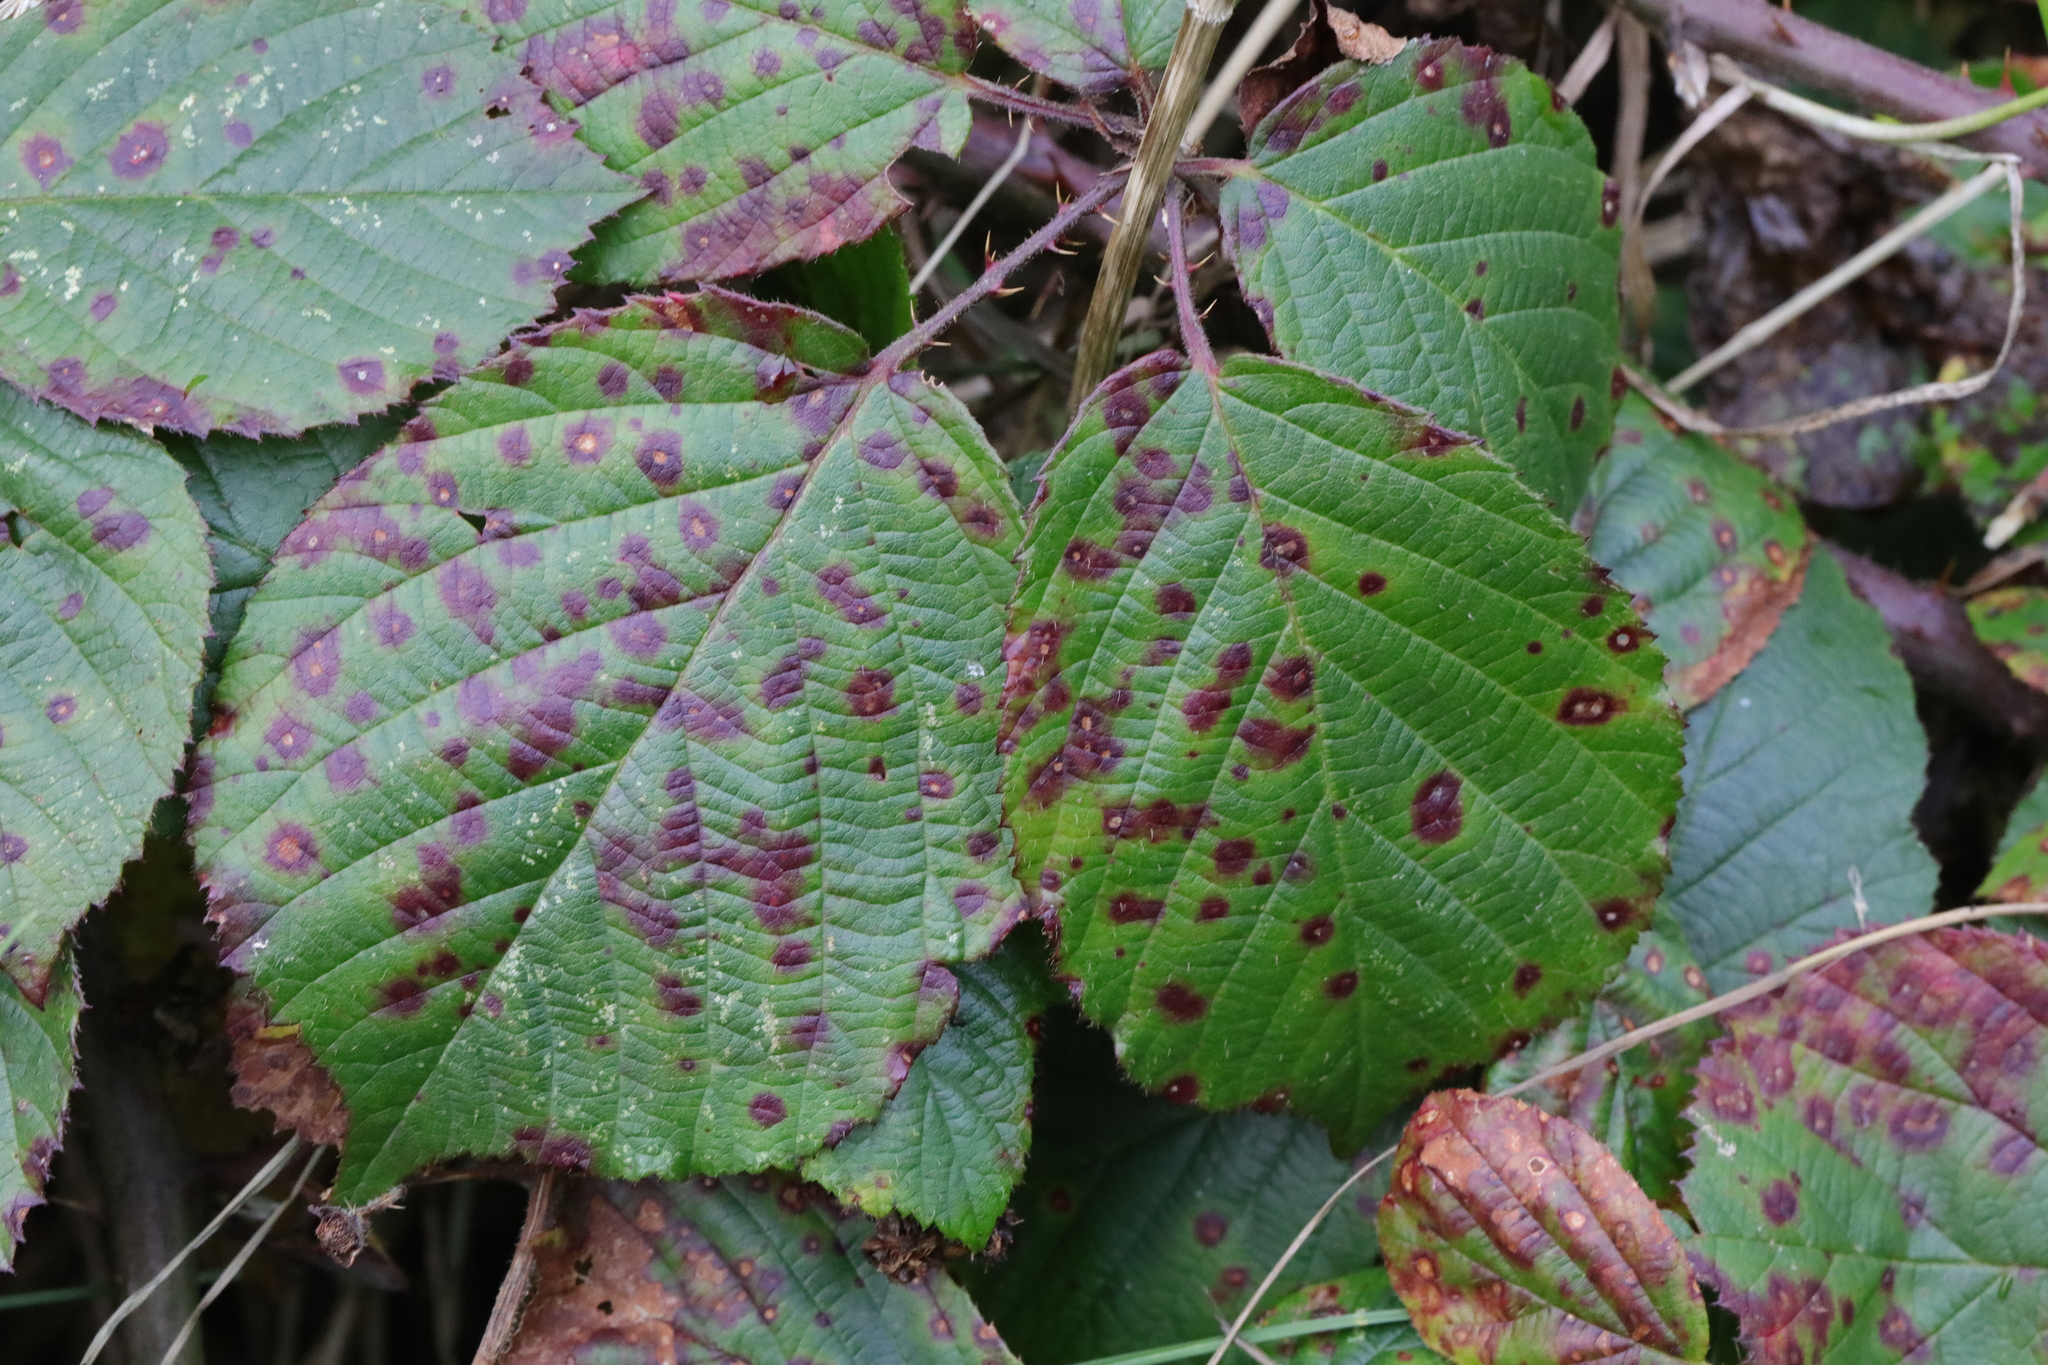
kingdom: Fungi
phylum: Basidiomycota
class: Pucciniomycetes
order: Pucciniales
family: Phragmidiaceae
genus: Phragmidium
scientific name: Phragmidium violaceum
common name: Violet bramble rust
